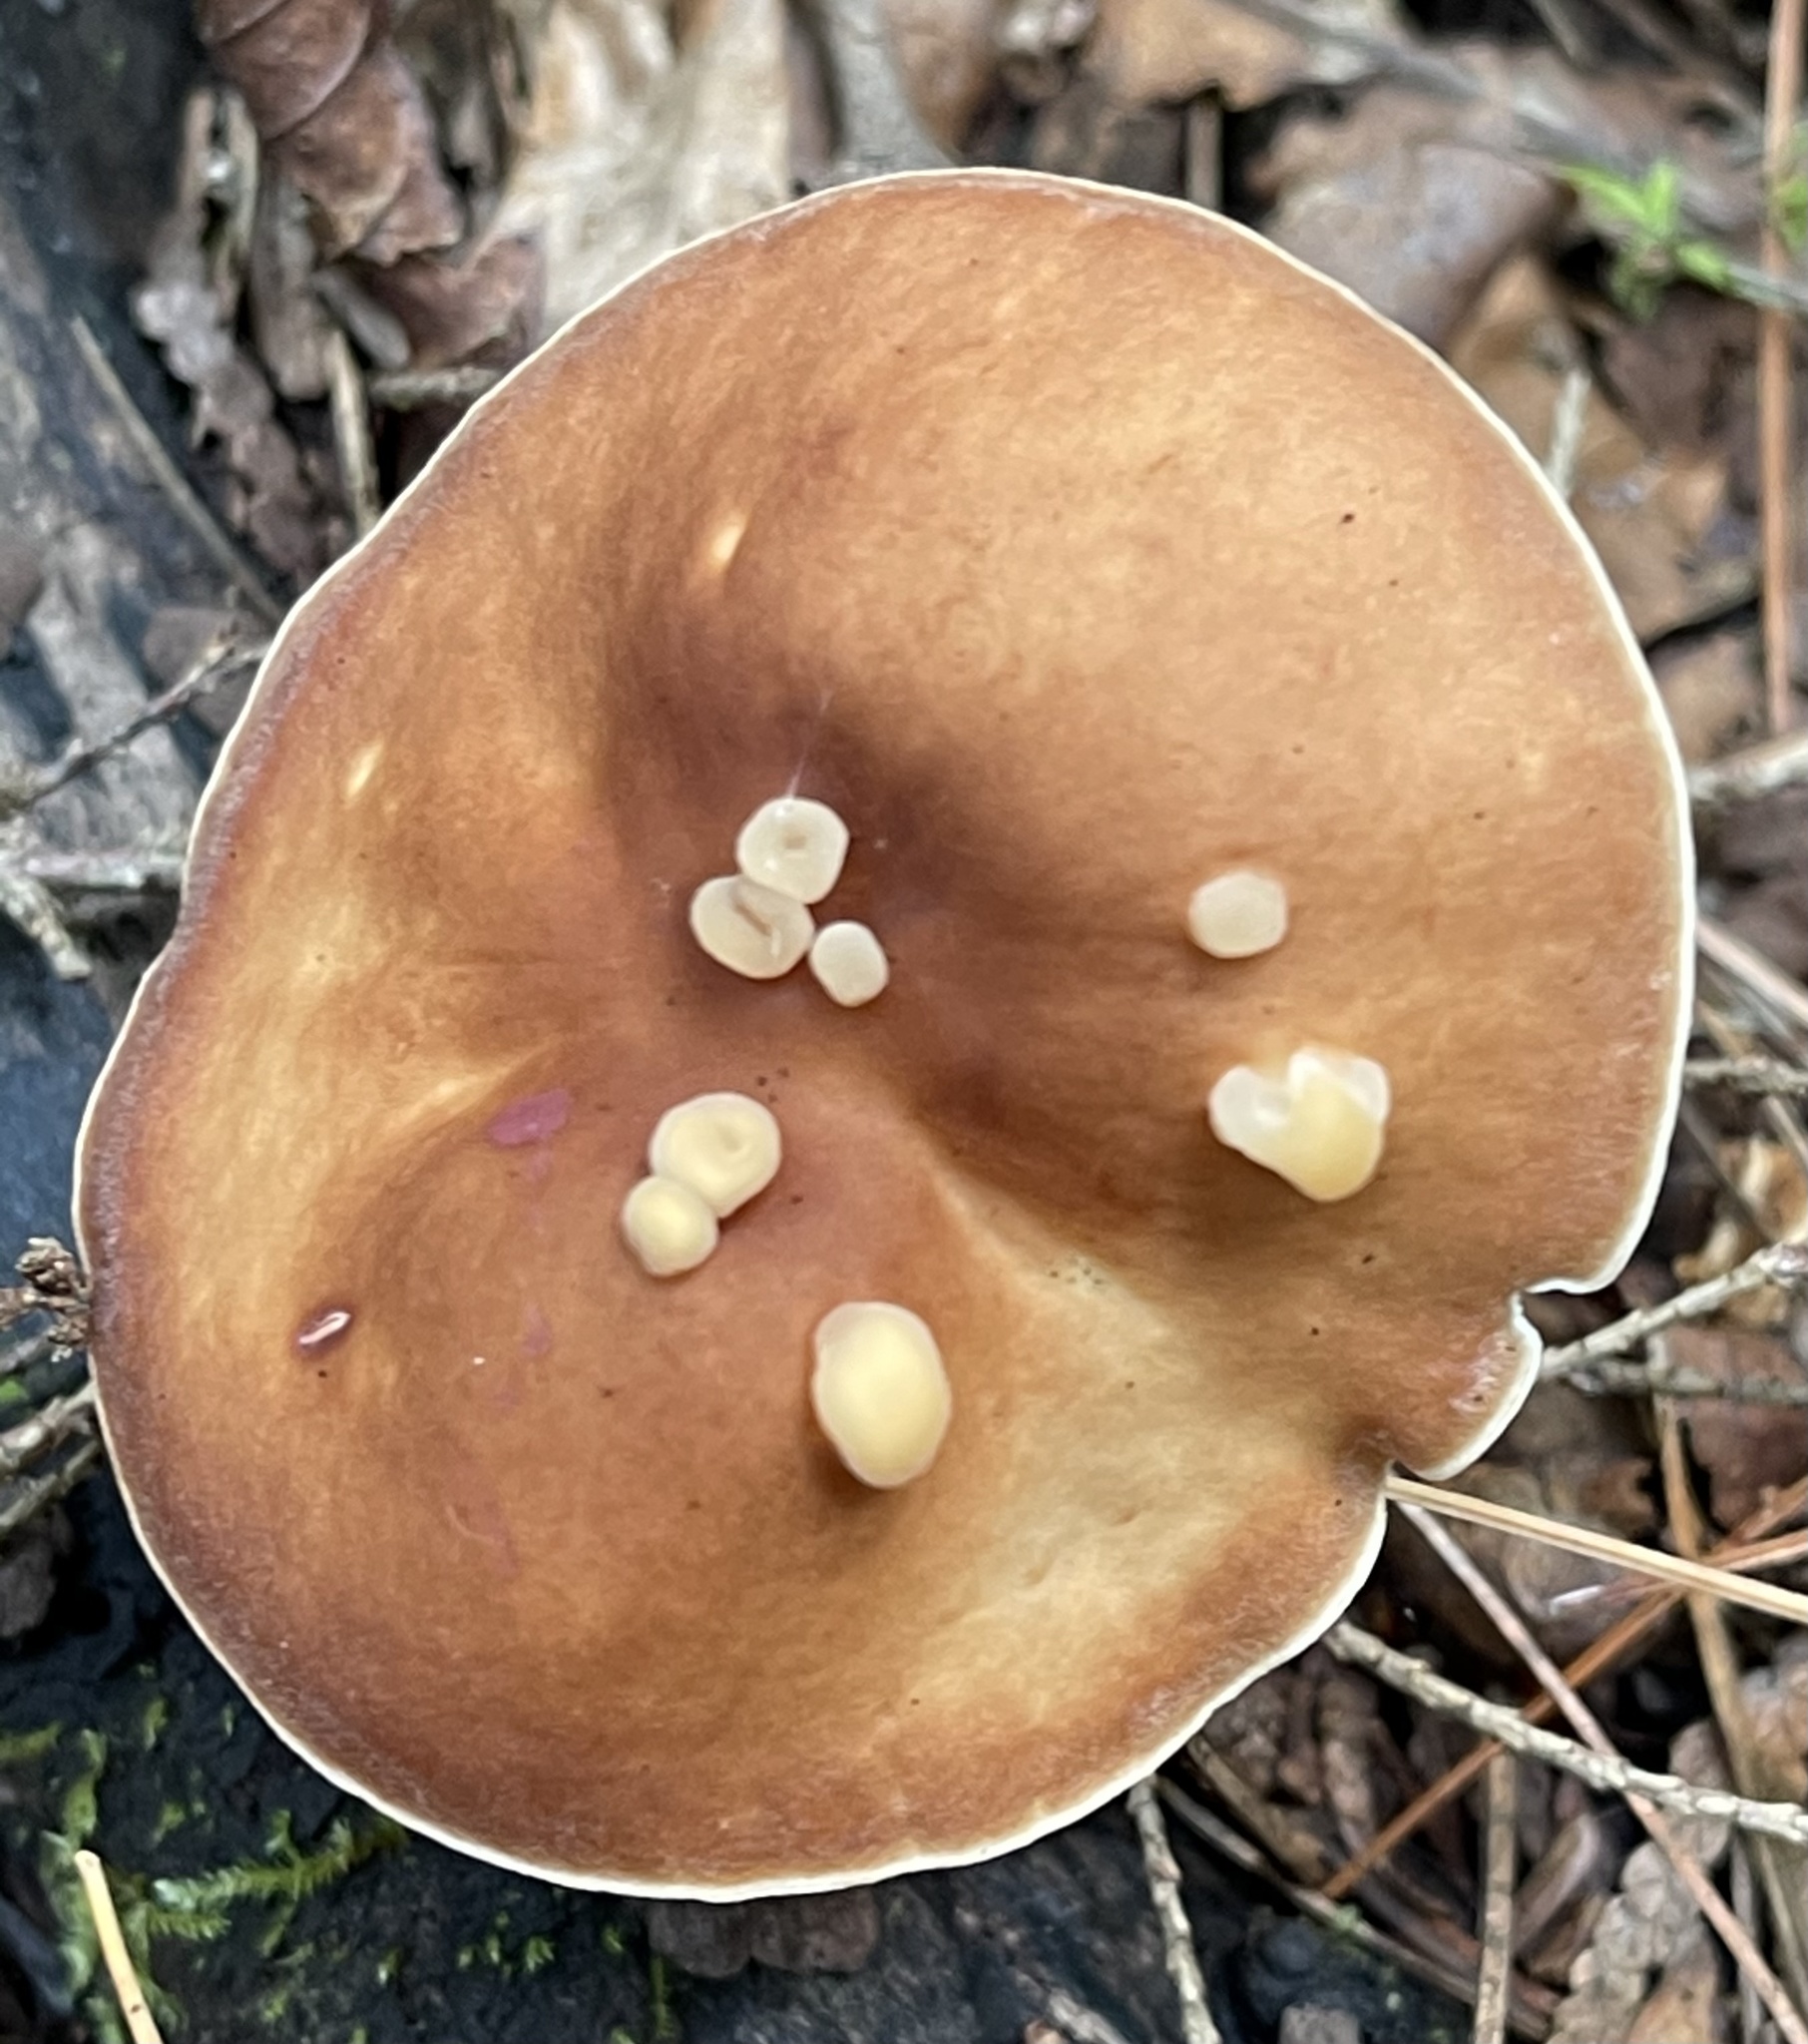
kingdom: Fungi
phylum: Basidiomycota
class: Agaricomycetes
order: Agaricales
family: Omphalotaceae
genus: Gymnopus
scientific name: Gymnopus dryophilus
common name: Penny top
